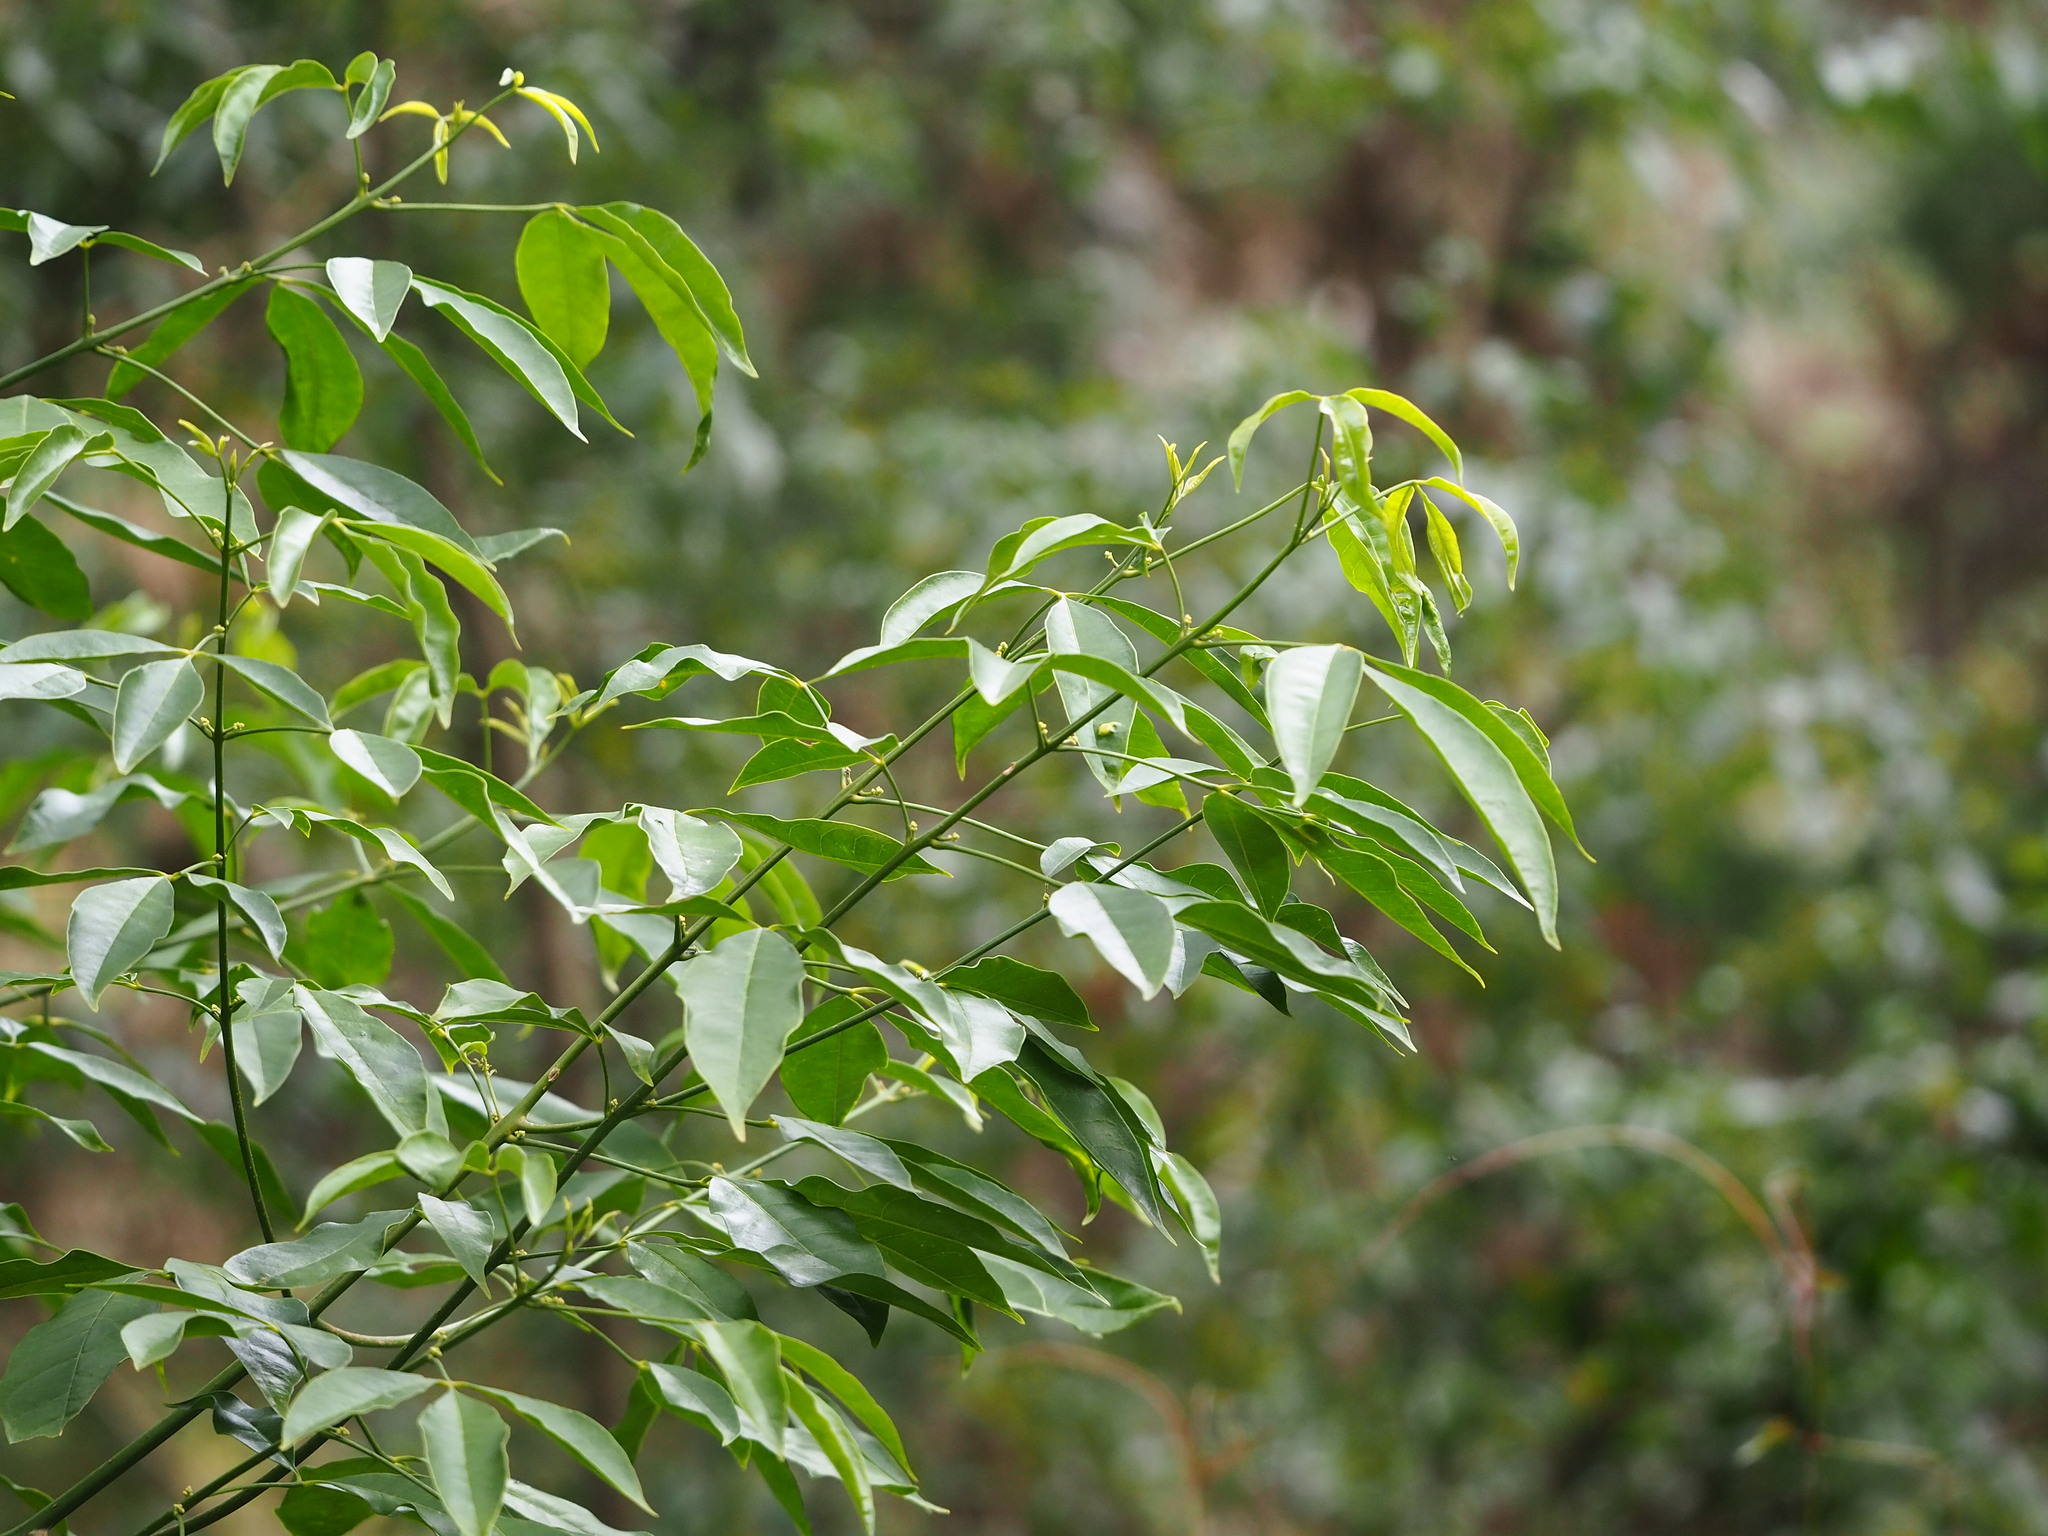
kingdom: Plantae
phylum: Tracheophyta
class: Magnoliopsida
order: Sapindales
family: Rutaceae
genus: Melicope
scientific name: Melicope pteleifolia
